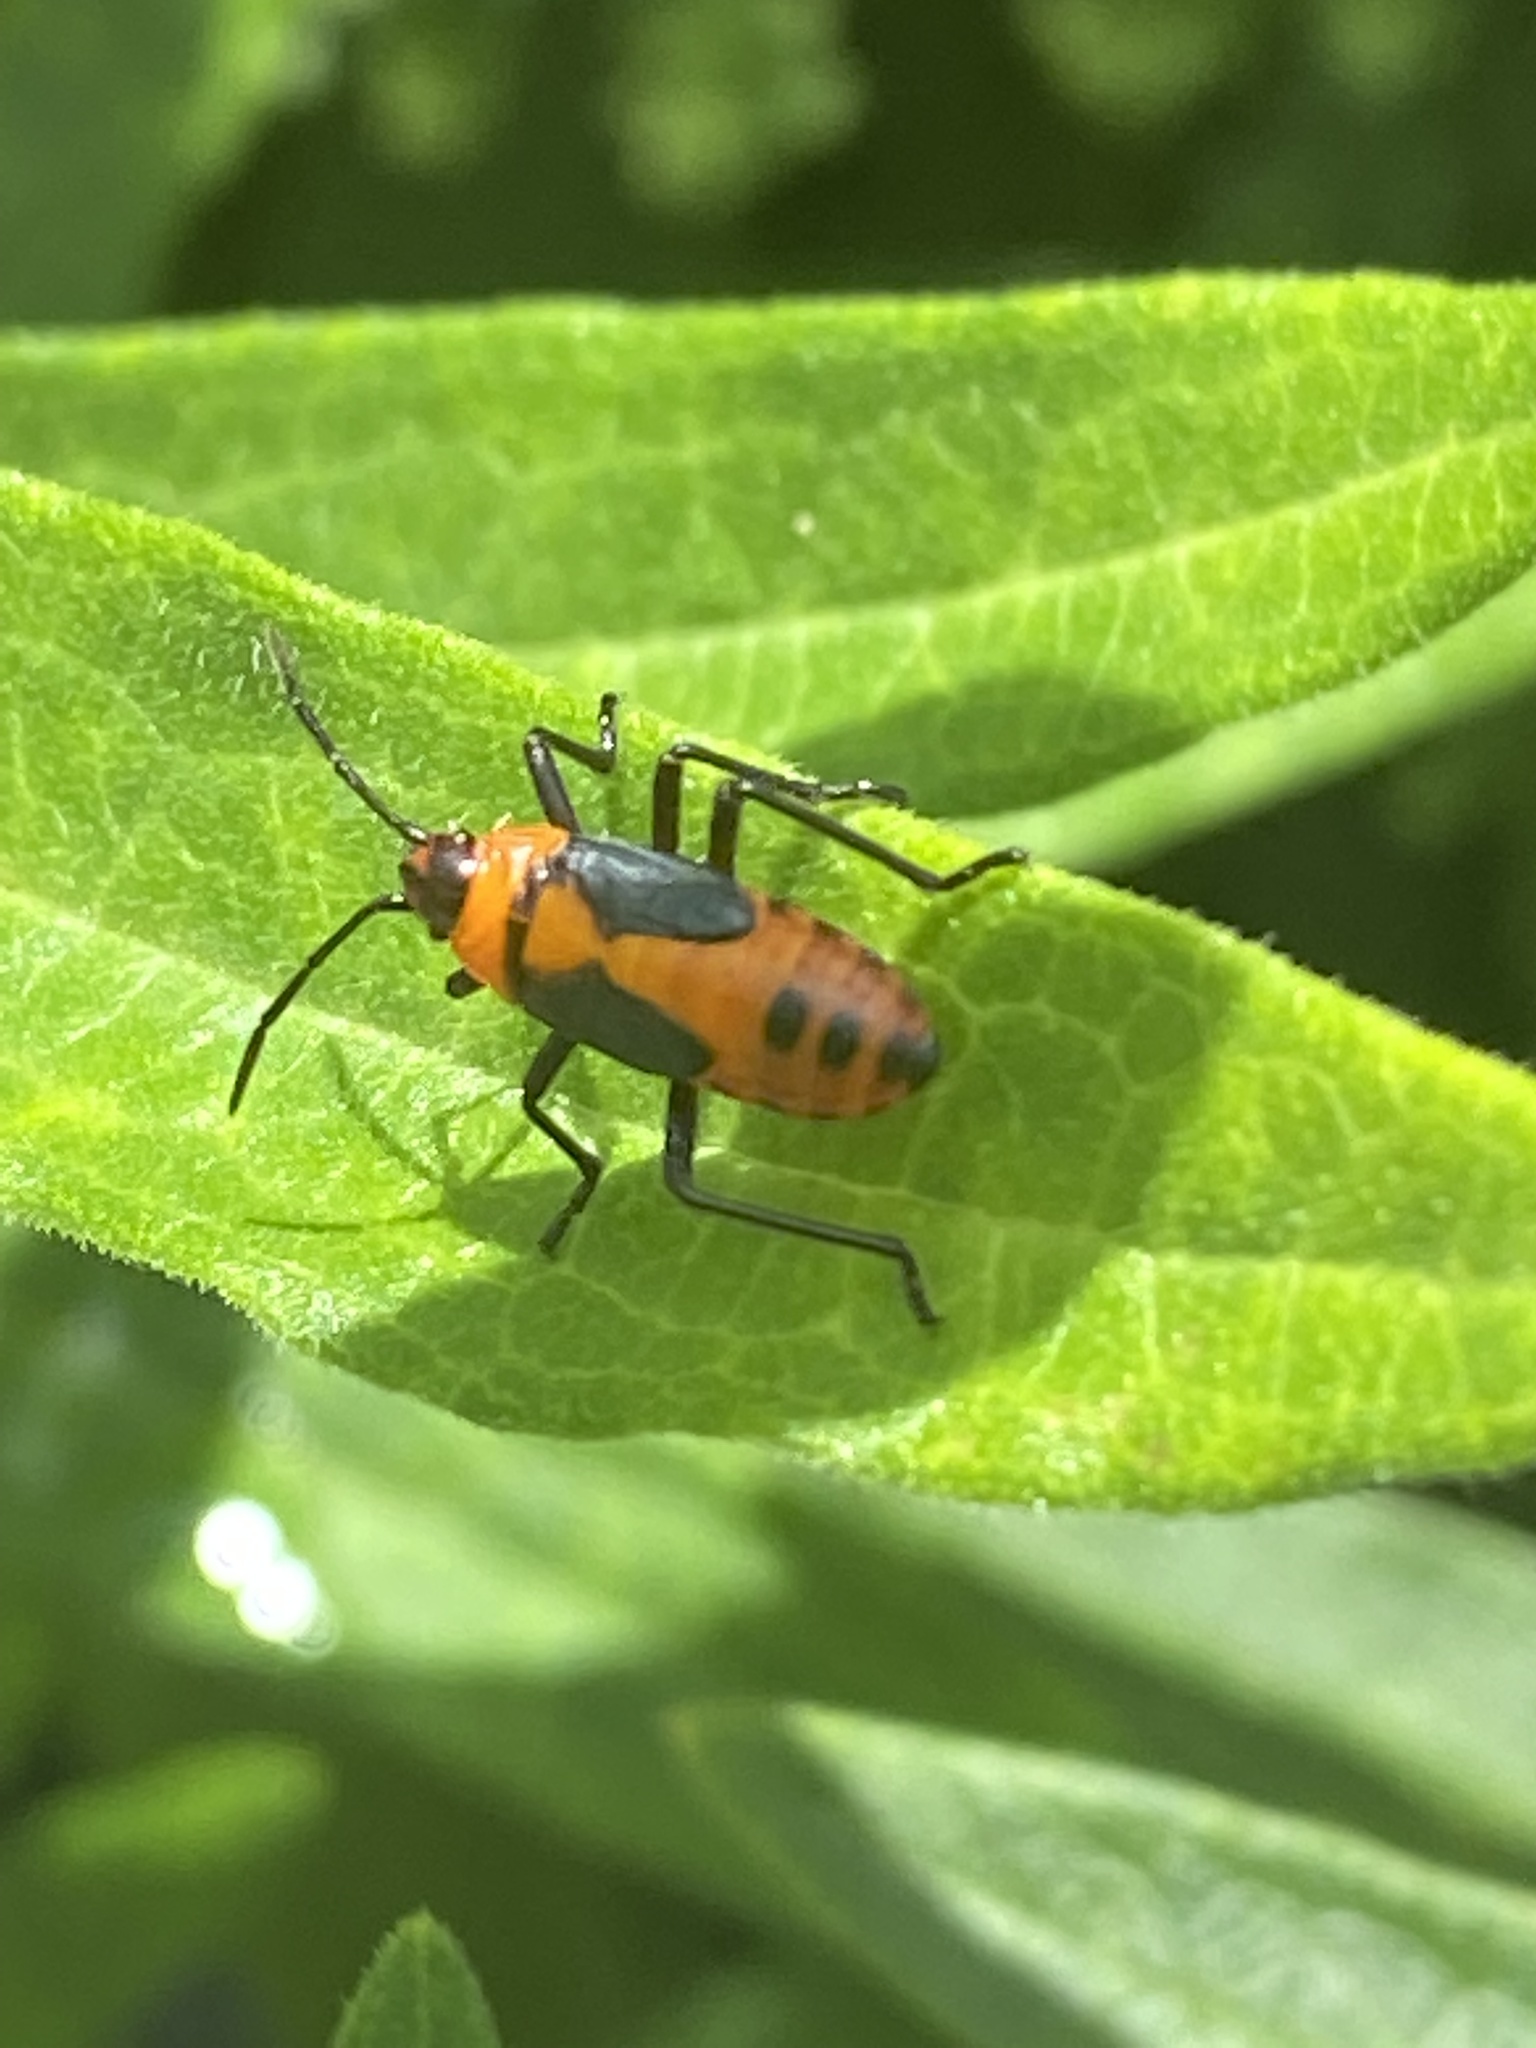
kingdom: Animalia
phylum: Arthropoda
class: Insecta
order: Hemiptera
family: Lygaeidae
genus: Oncopeltus
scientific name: Oncopeltus fasciatus
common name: Large milkweed bug
